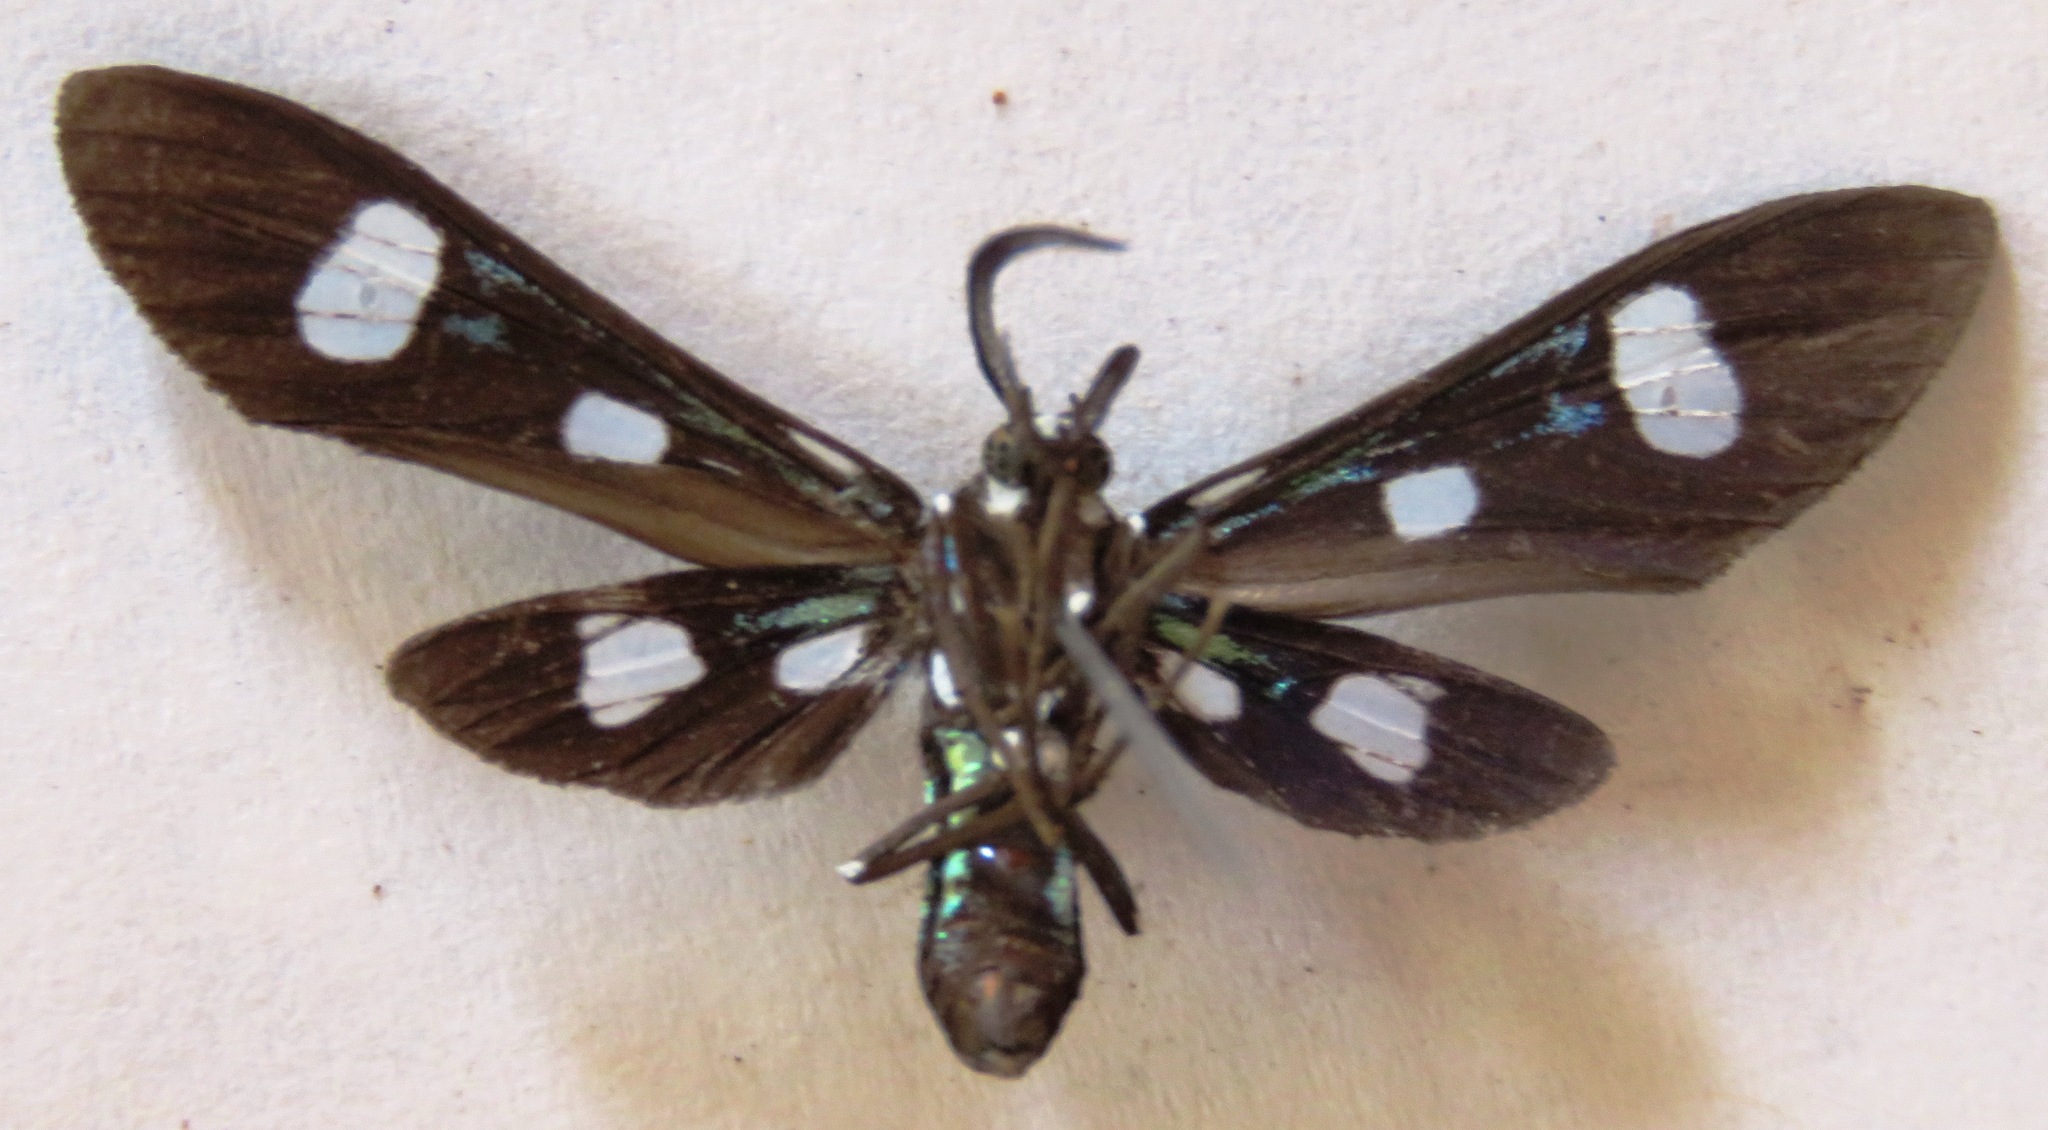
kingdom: Animalia
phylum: Arthropoda
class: Insecta
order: Lepidoptera
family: Erebidae
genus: Leucotmemis
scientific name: Leucotmemis nexa
